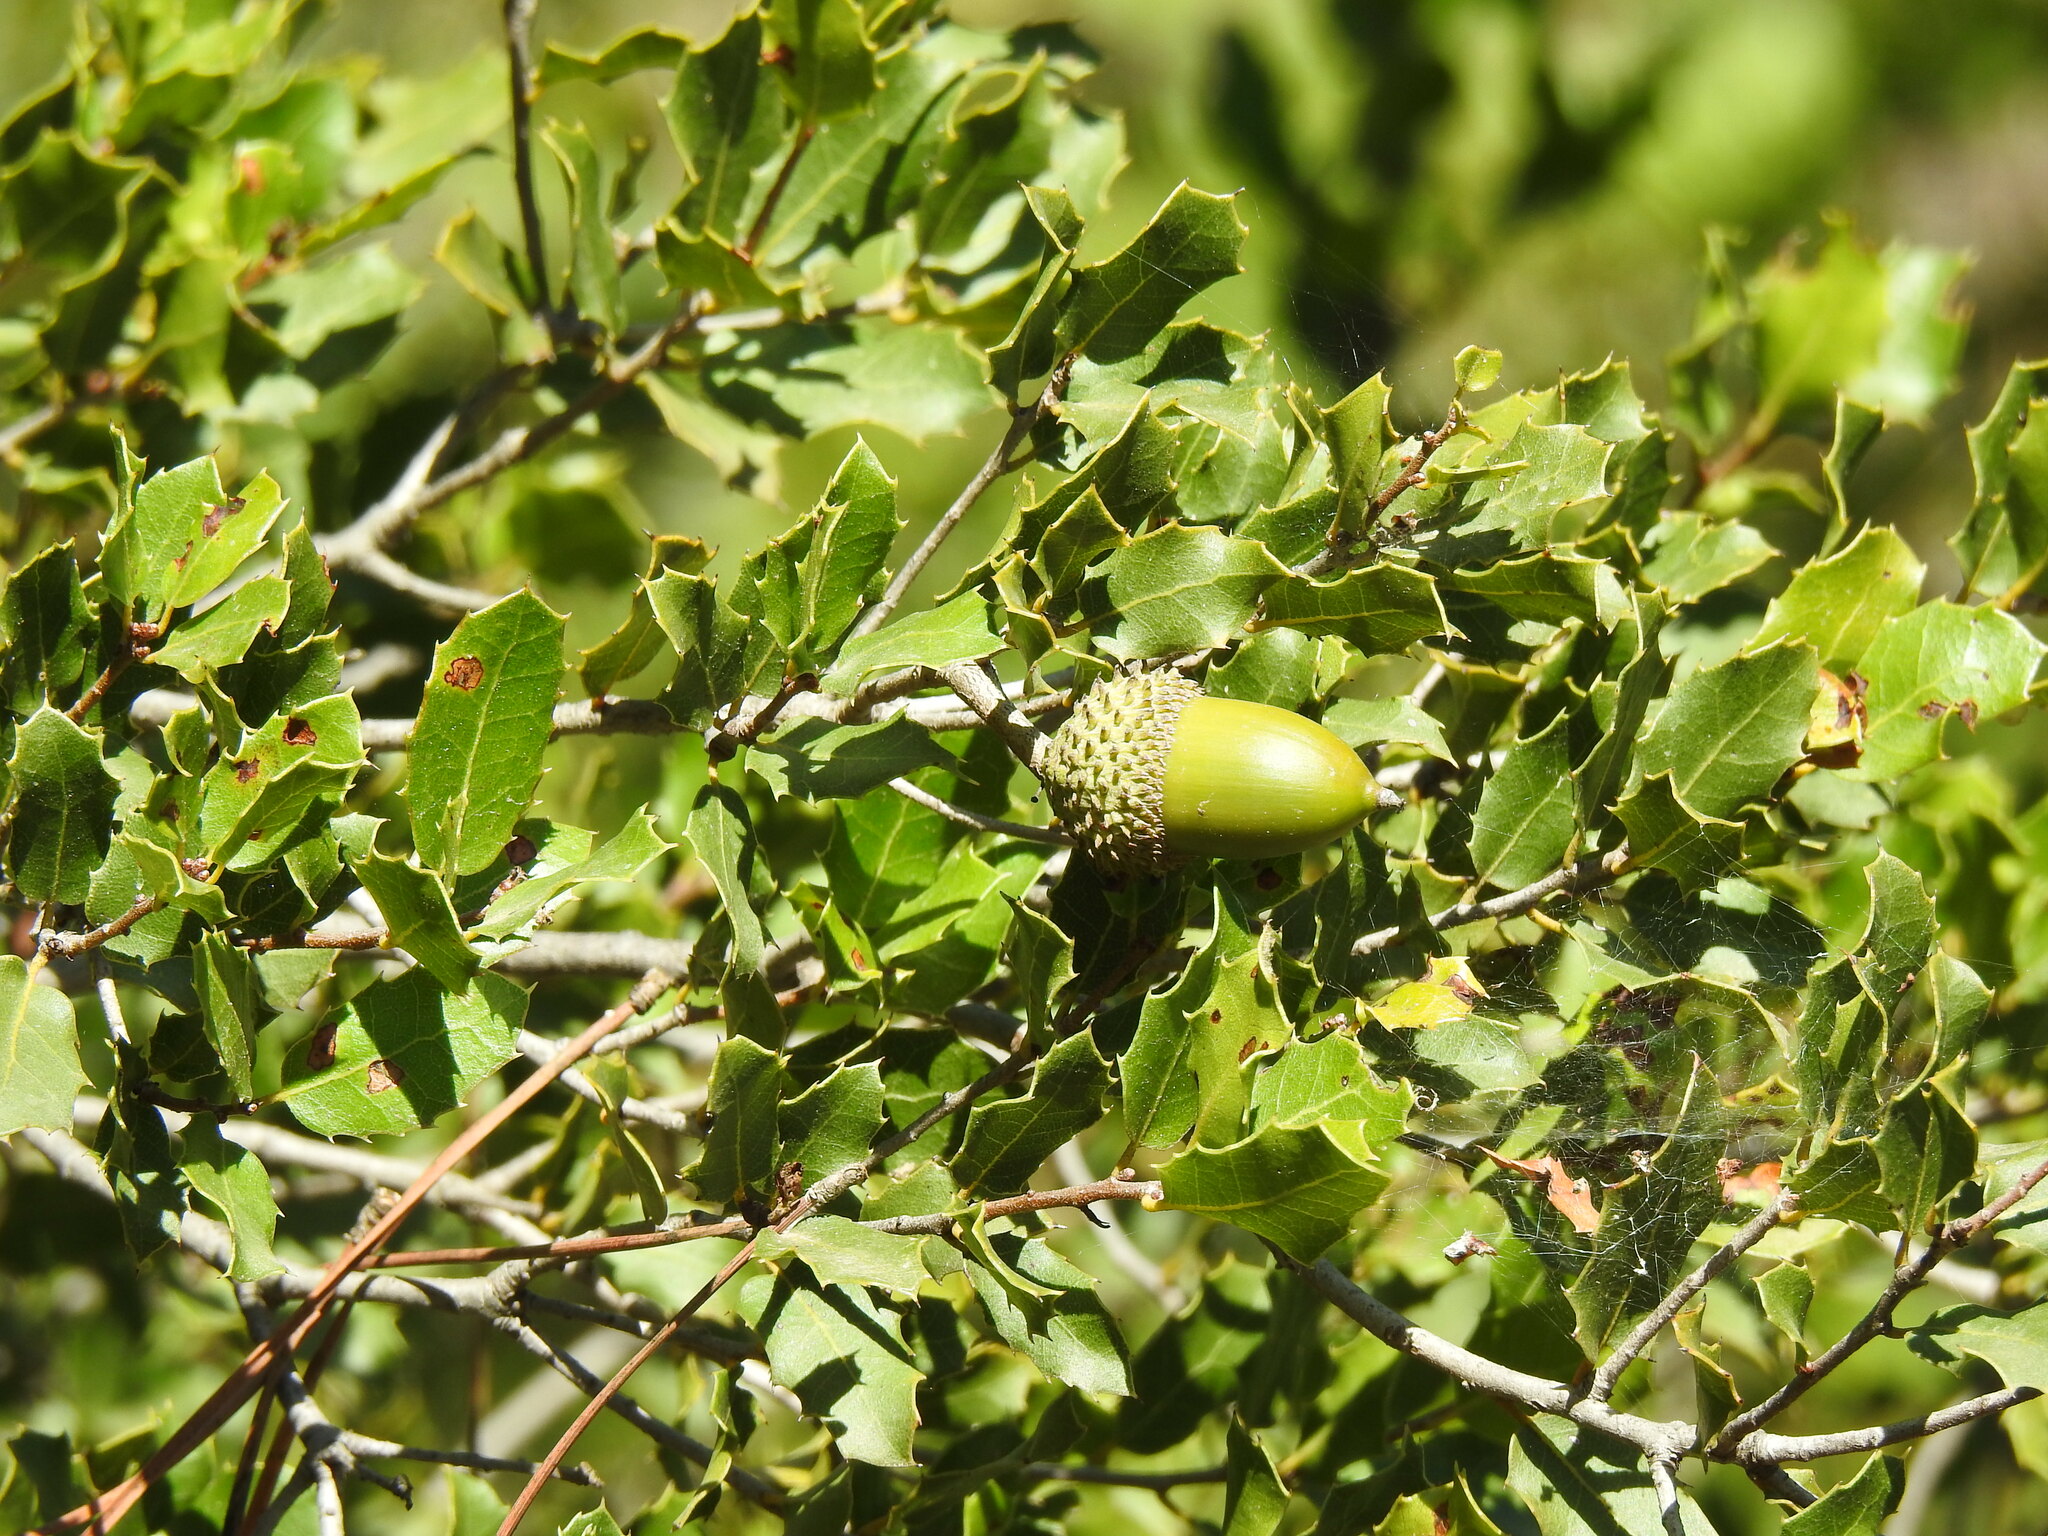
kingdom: Plantae
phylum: Tracheophyta
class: Magnoliopsida
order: Fagales
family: Fagaceae
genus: Quercus
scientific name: Quercus coccifera
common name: Kermes oak
